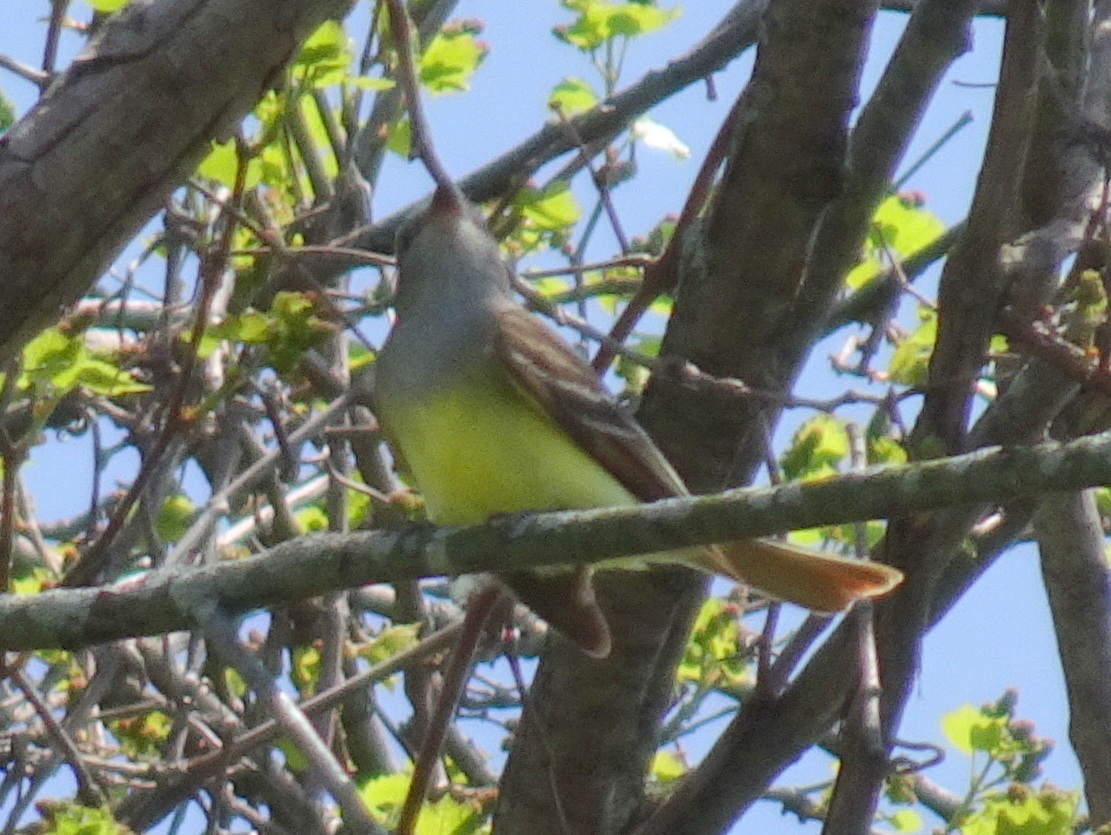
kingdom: Animalia
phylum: Chordata
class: Aves
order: Passeriformes
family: Tyrannidae
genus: Myiarchus
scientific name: Myiarchus crinitus
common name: Great crested flycatcher
